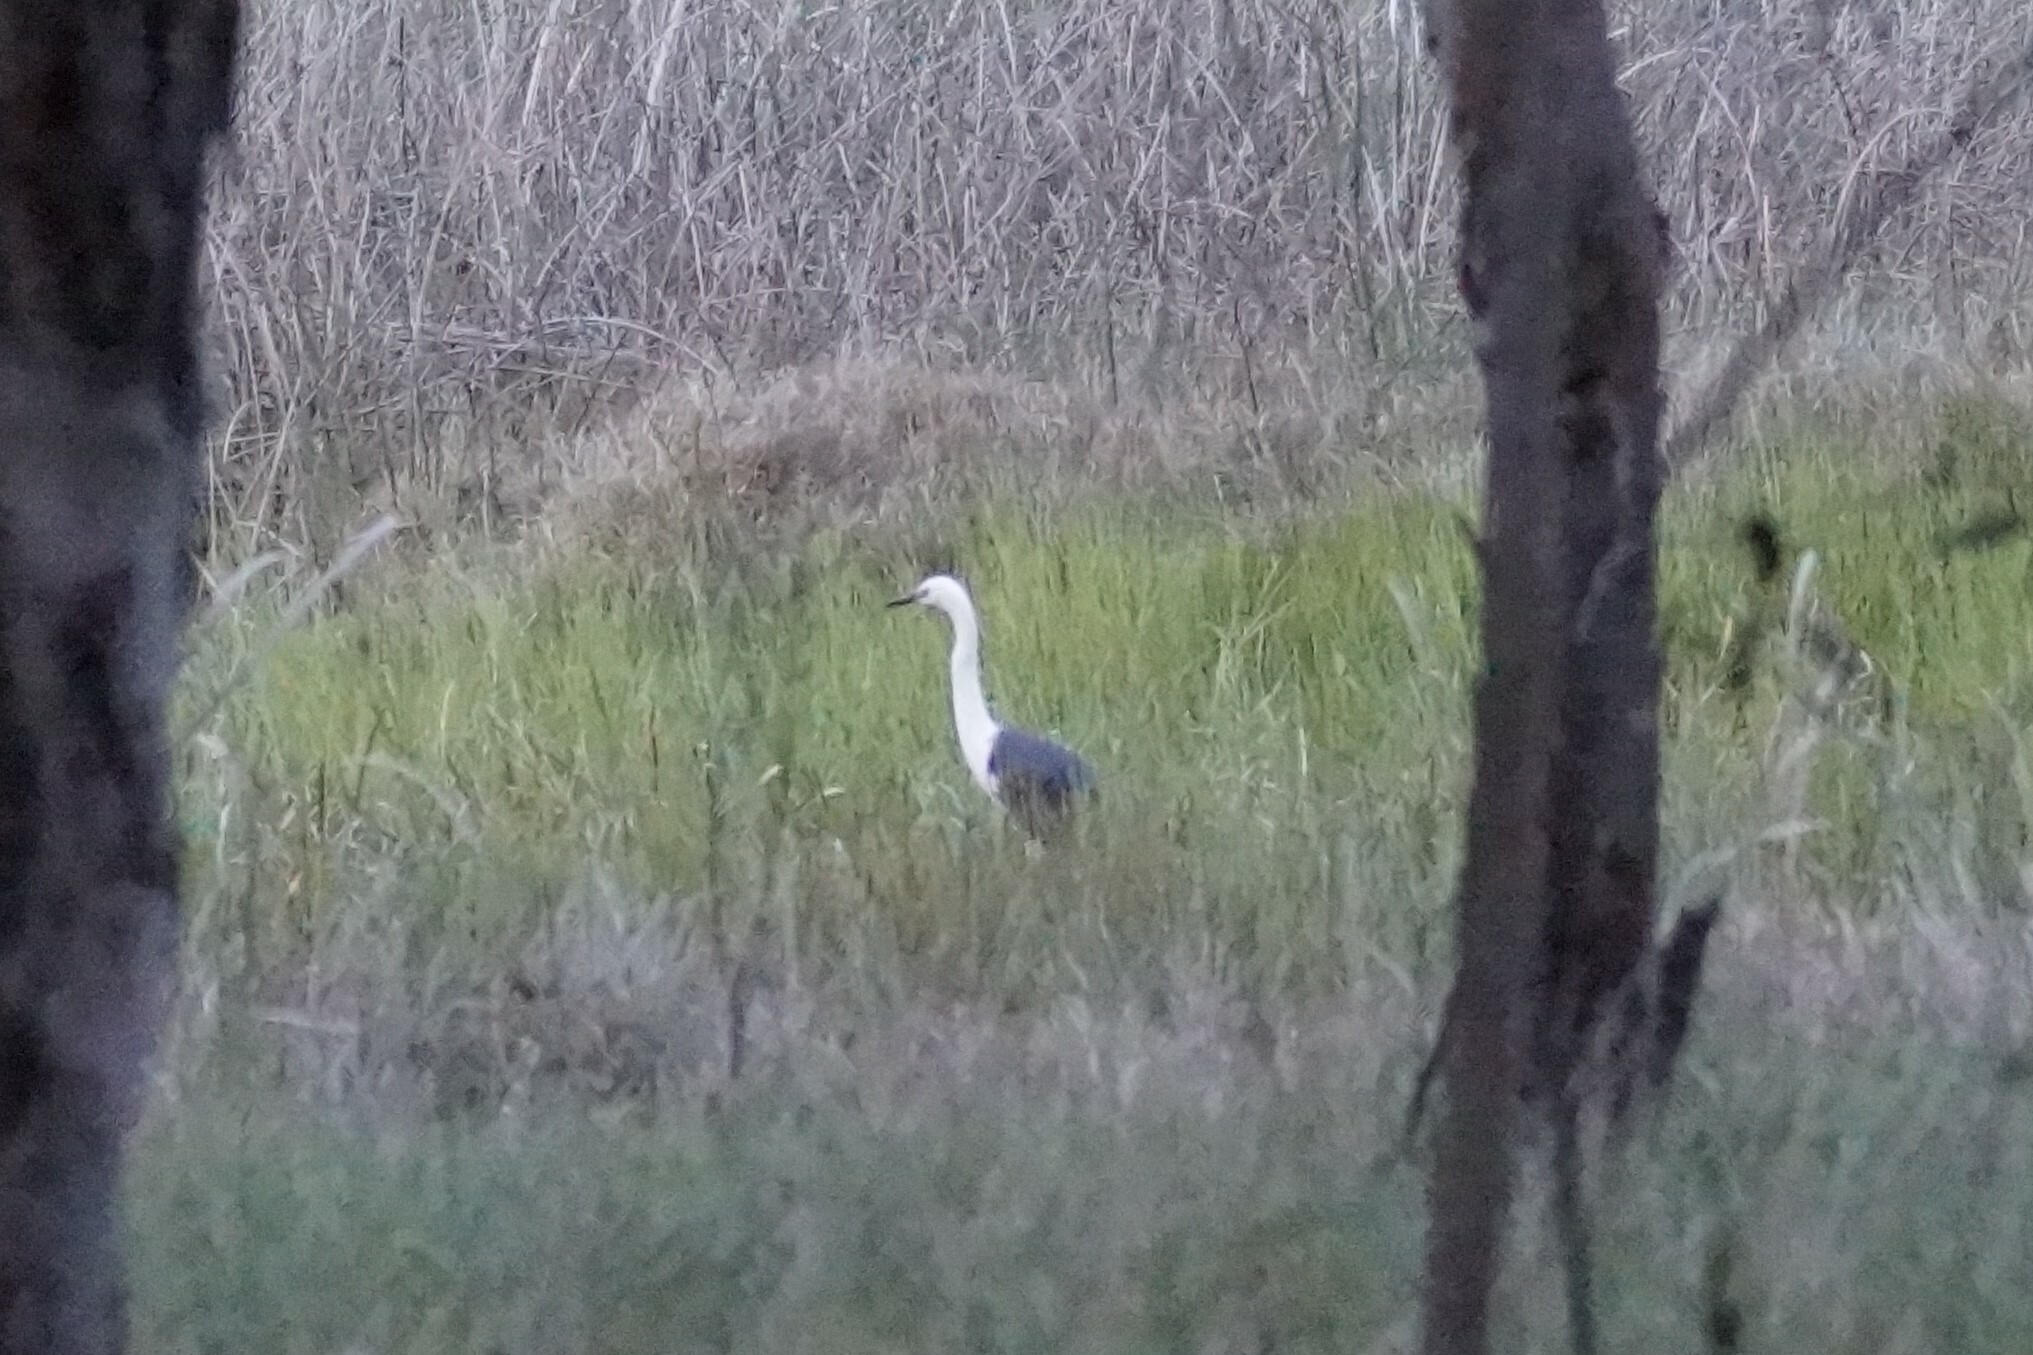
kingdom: Animalia
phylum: Chordata
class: Aves
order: Pelecaniformes
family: Ardeidae
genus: Ardea
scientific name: Ardea pacifica
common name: White-necked heron
